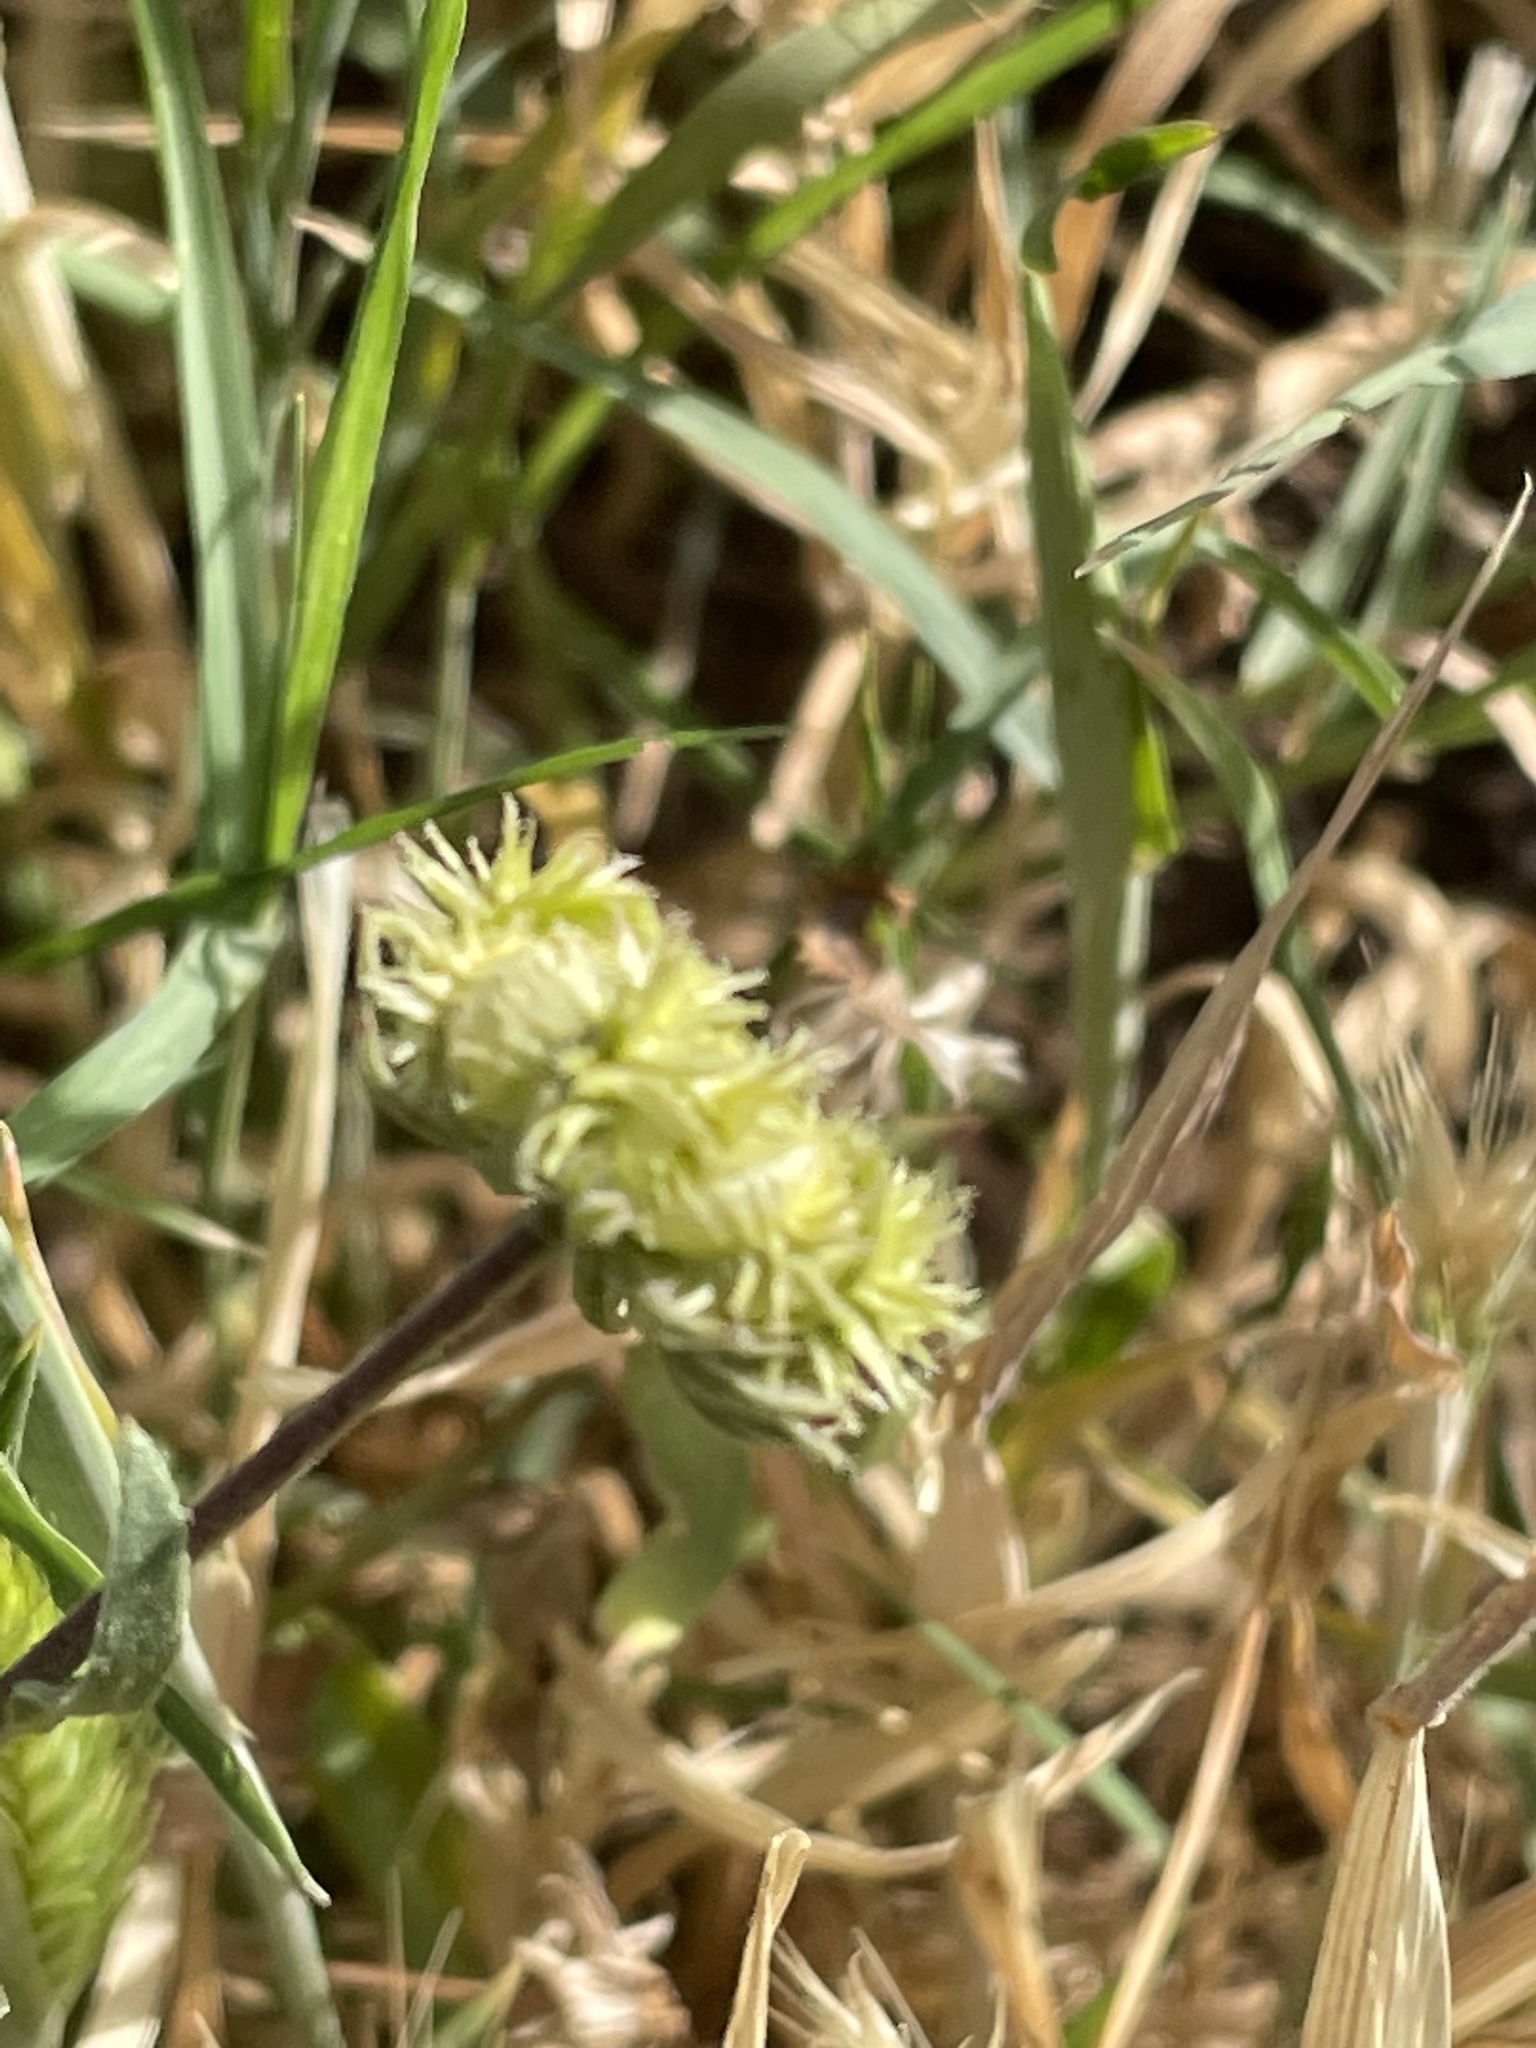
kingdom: Plantae
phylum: Tracheophyta
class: Magnoliopsida
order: Asterales
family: Asteraceae
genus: Calendula
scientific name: Calendula tripterocarpa
